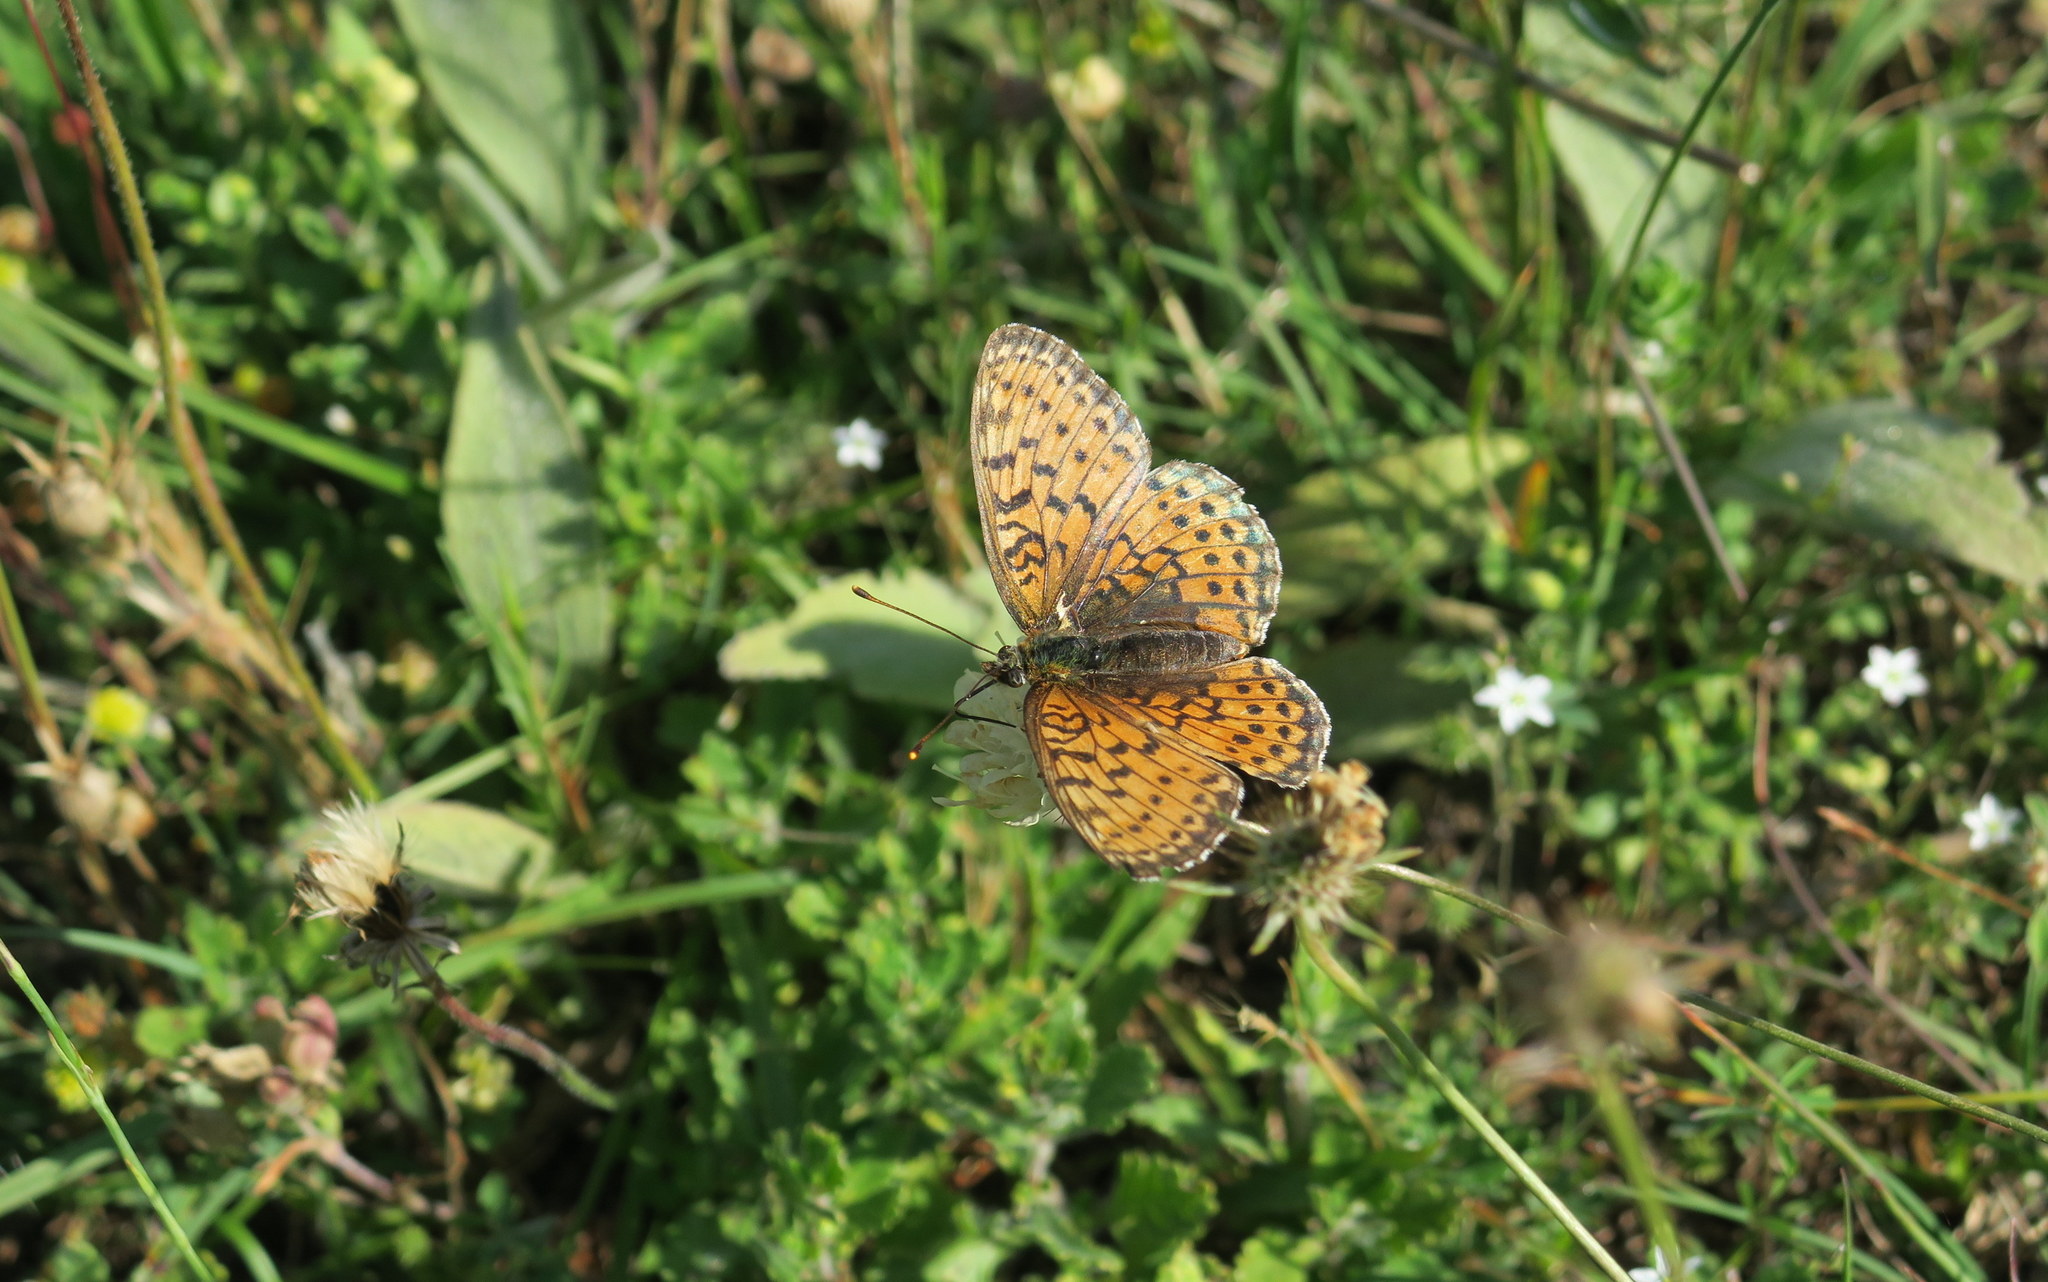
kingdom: Animalia
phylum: Arthropoda
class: Insecta
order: Lepidoptera
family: Nymphalidae
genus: Brenthis
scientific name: Brenthis hecate
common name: Twin-spot fritillary
